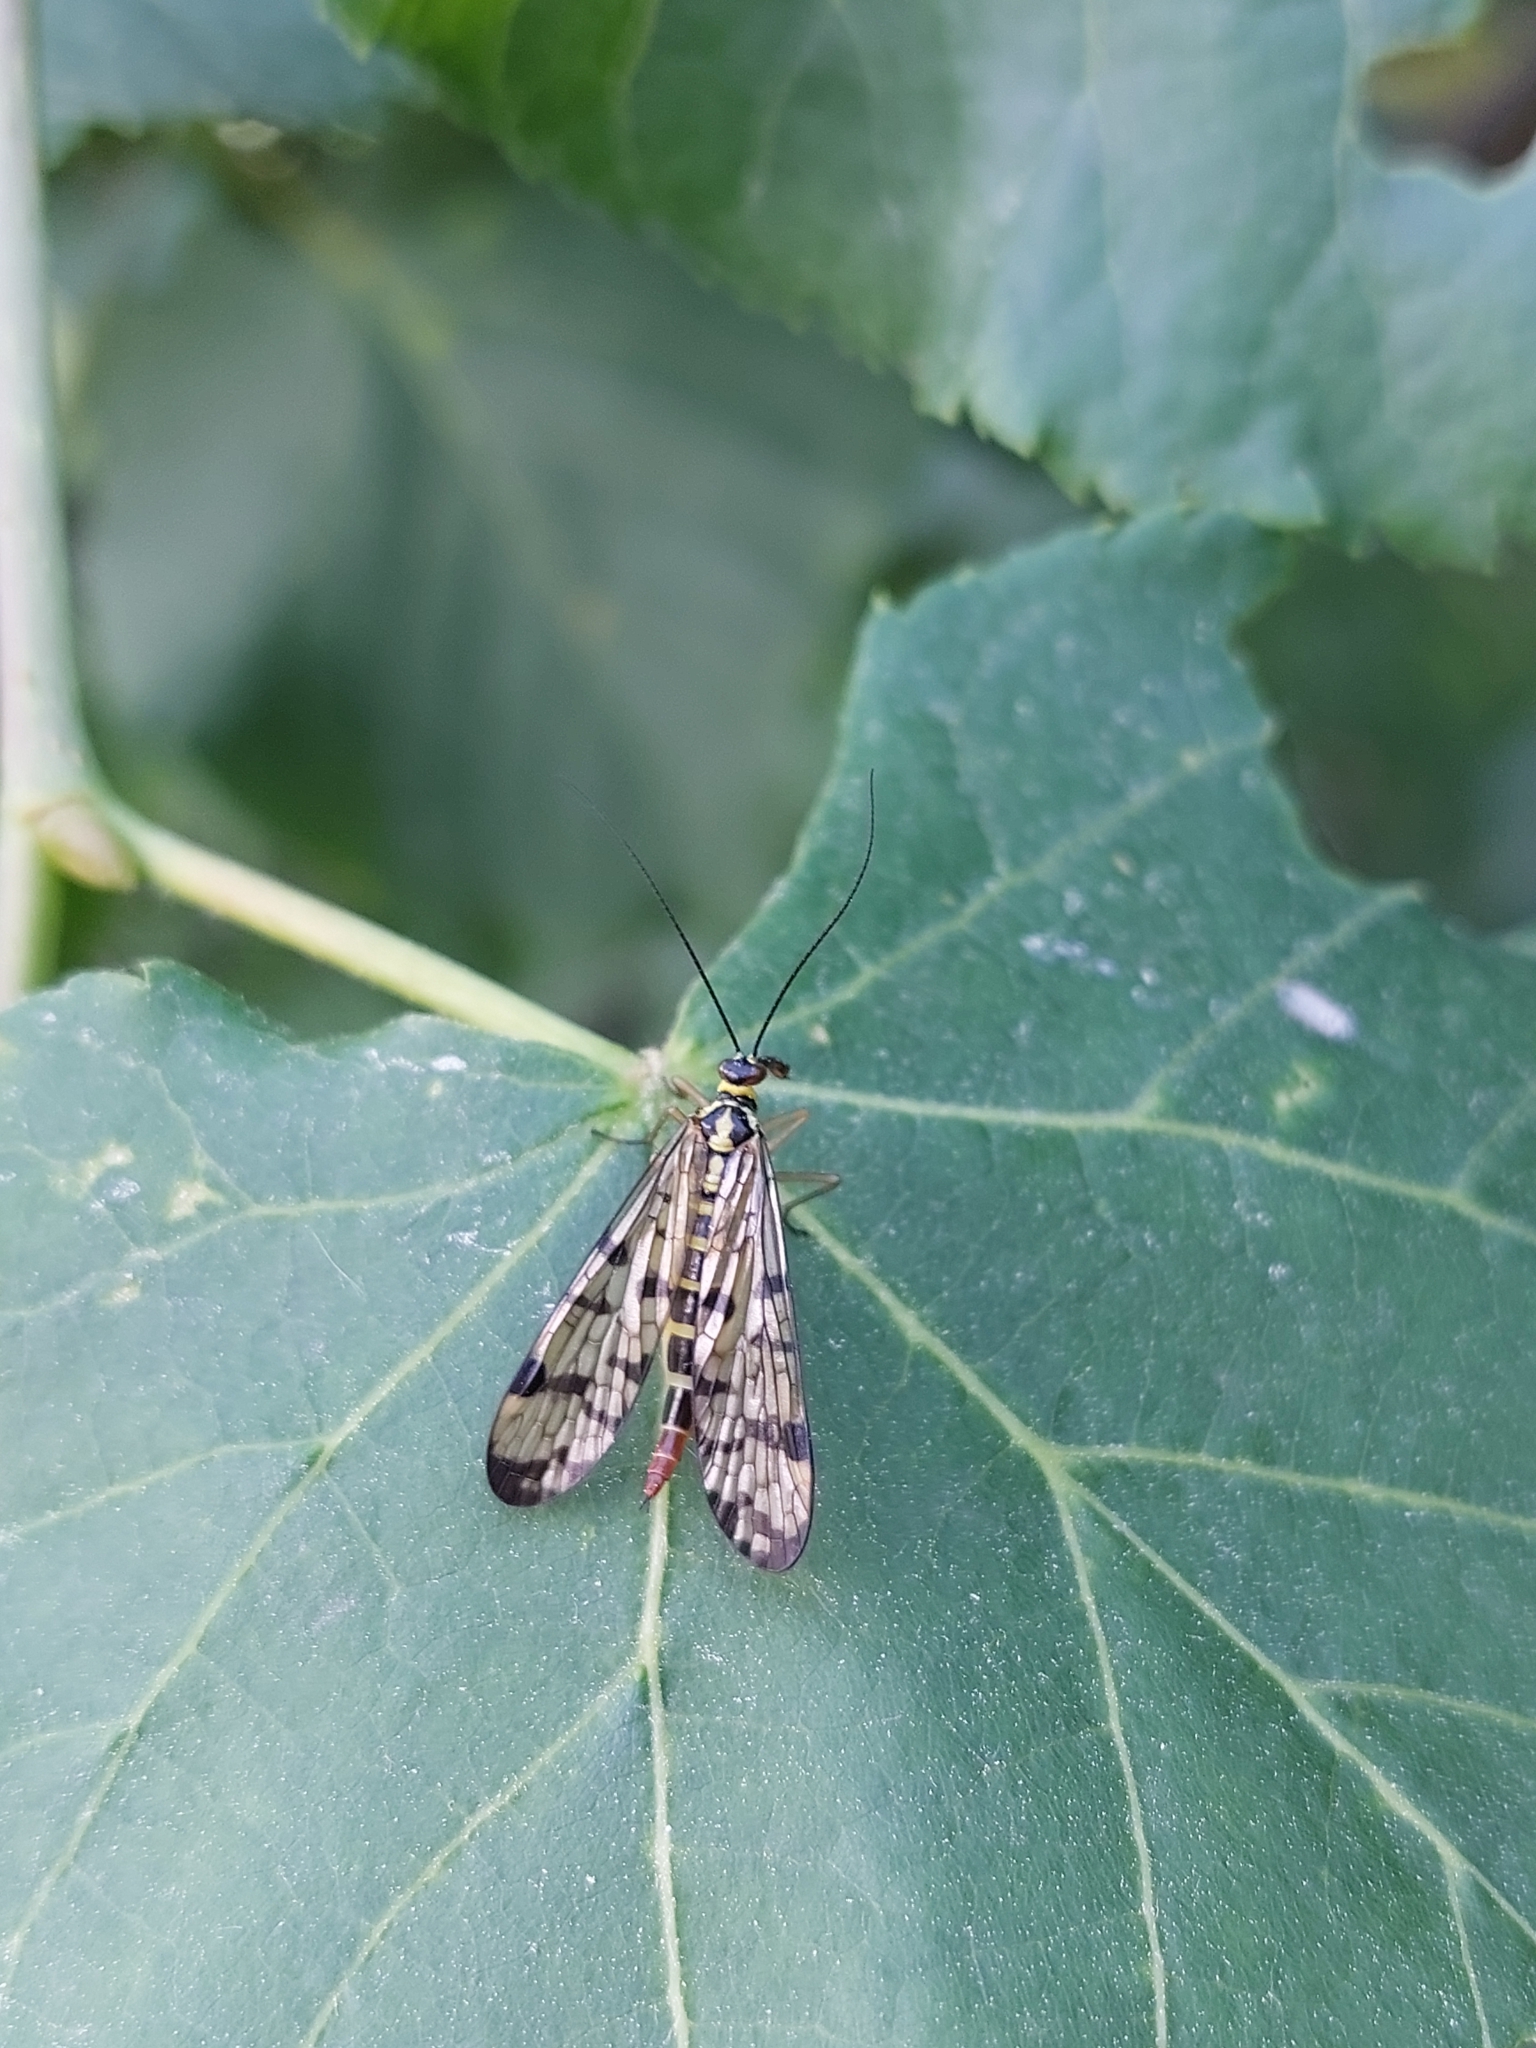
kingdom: Animalia
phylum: Arthropoda
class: Insecta
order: Mecoptera
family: Panorpidae
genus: Panorpa
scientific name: Panorpa communis
